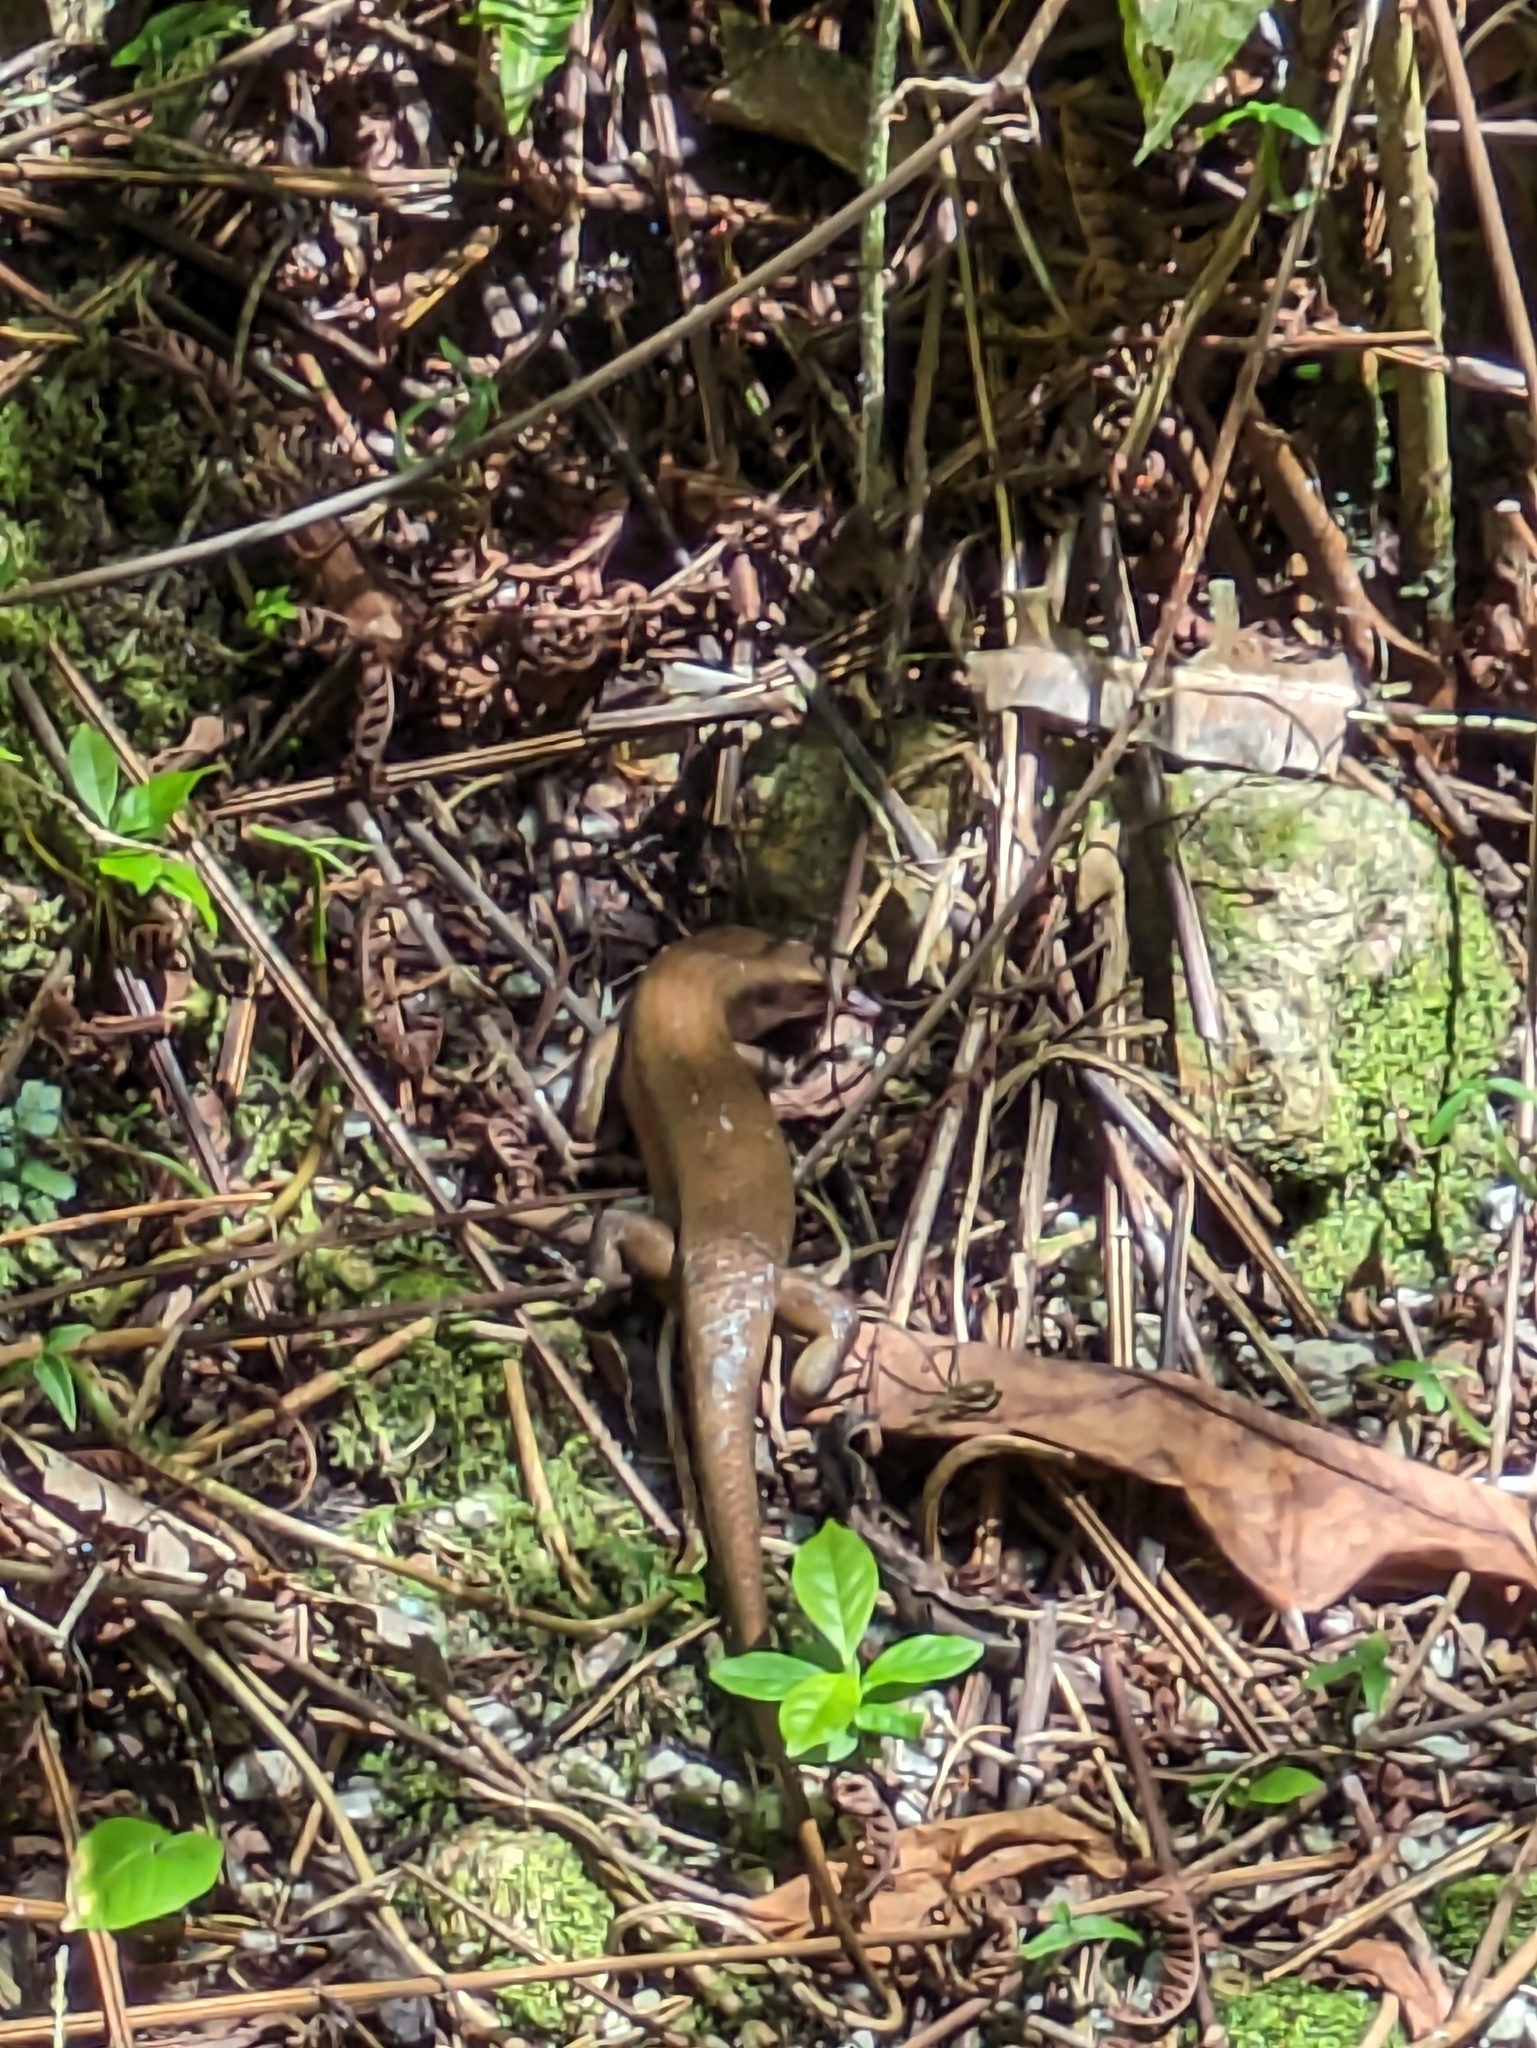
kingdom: Animalia
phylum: Chordata
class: Squamata
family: Scincidae
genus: Eutropis
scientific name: Eutropis multifasciata
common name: Common mabuya
